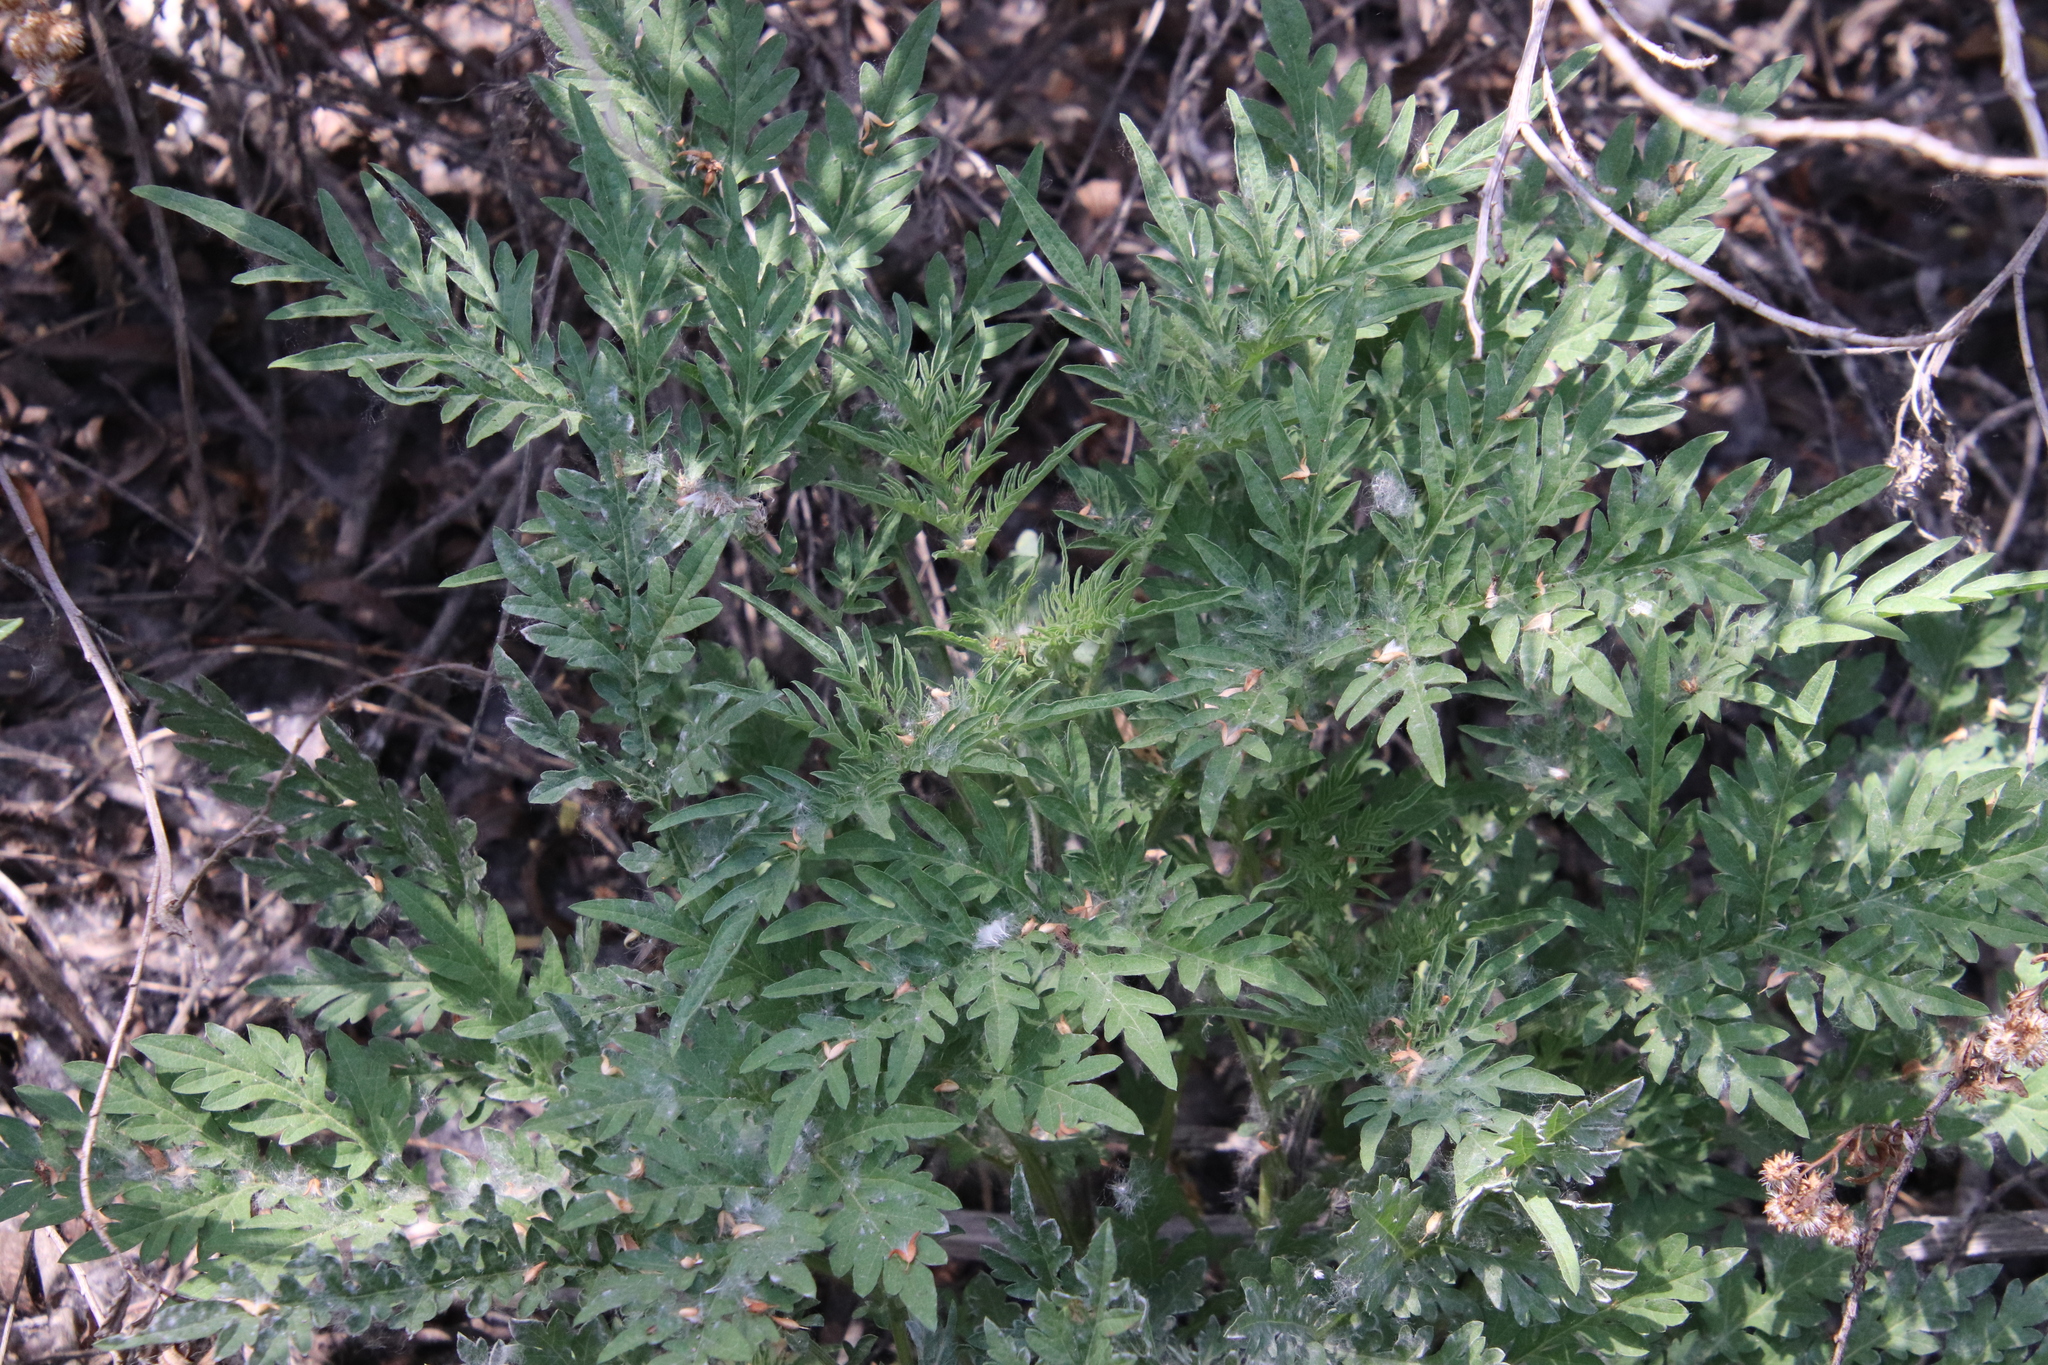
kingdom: Plantae
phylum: Tracheophyta
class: Magnoliopsida
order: Asterales
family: Asteraceae
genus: Ambrosia
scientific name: Ambrosia confertiflora
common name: Bur ragweed
